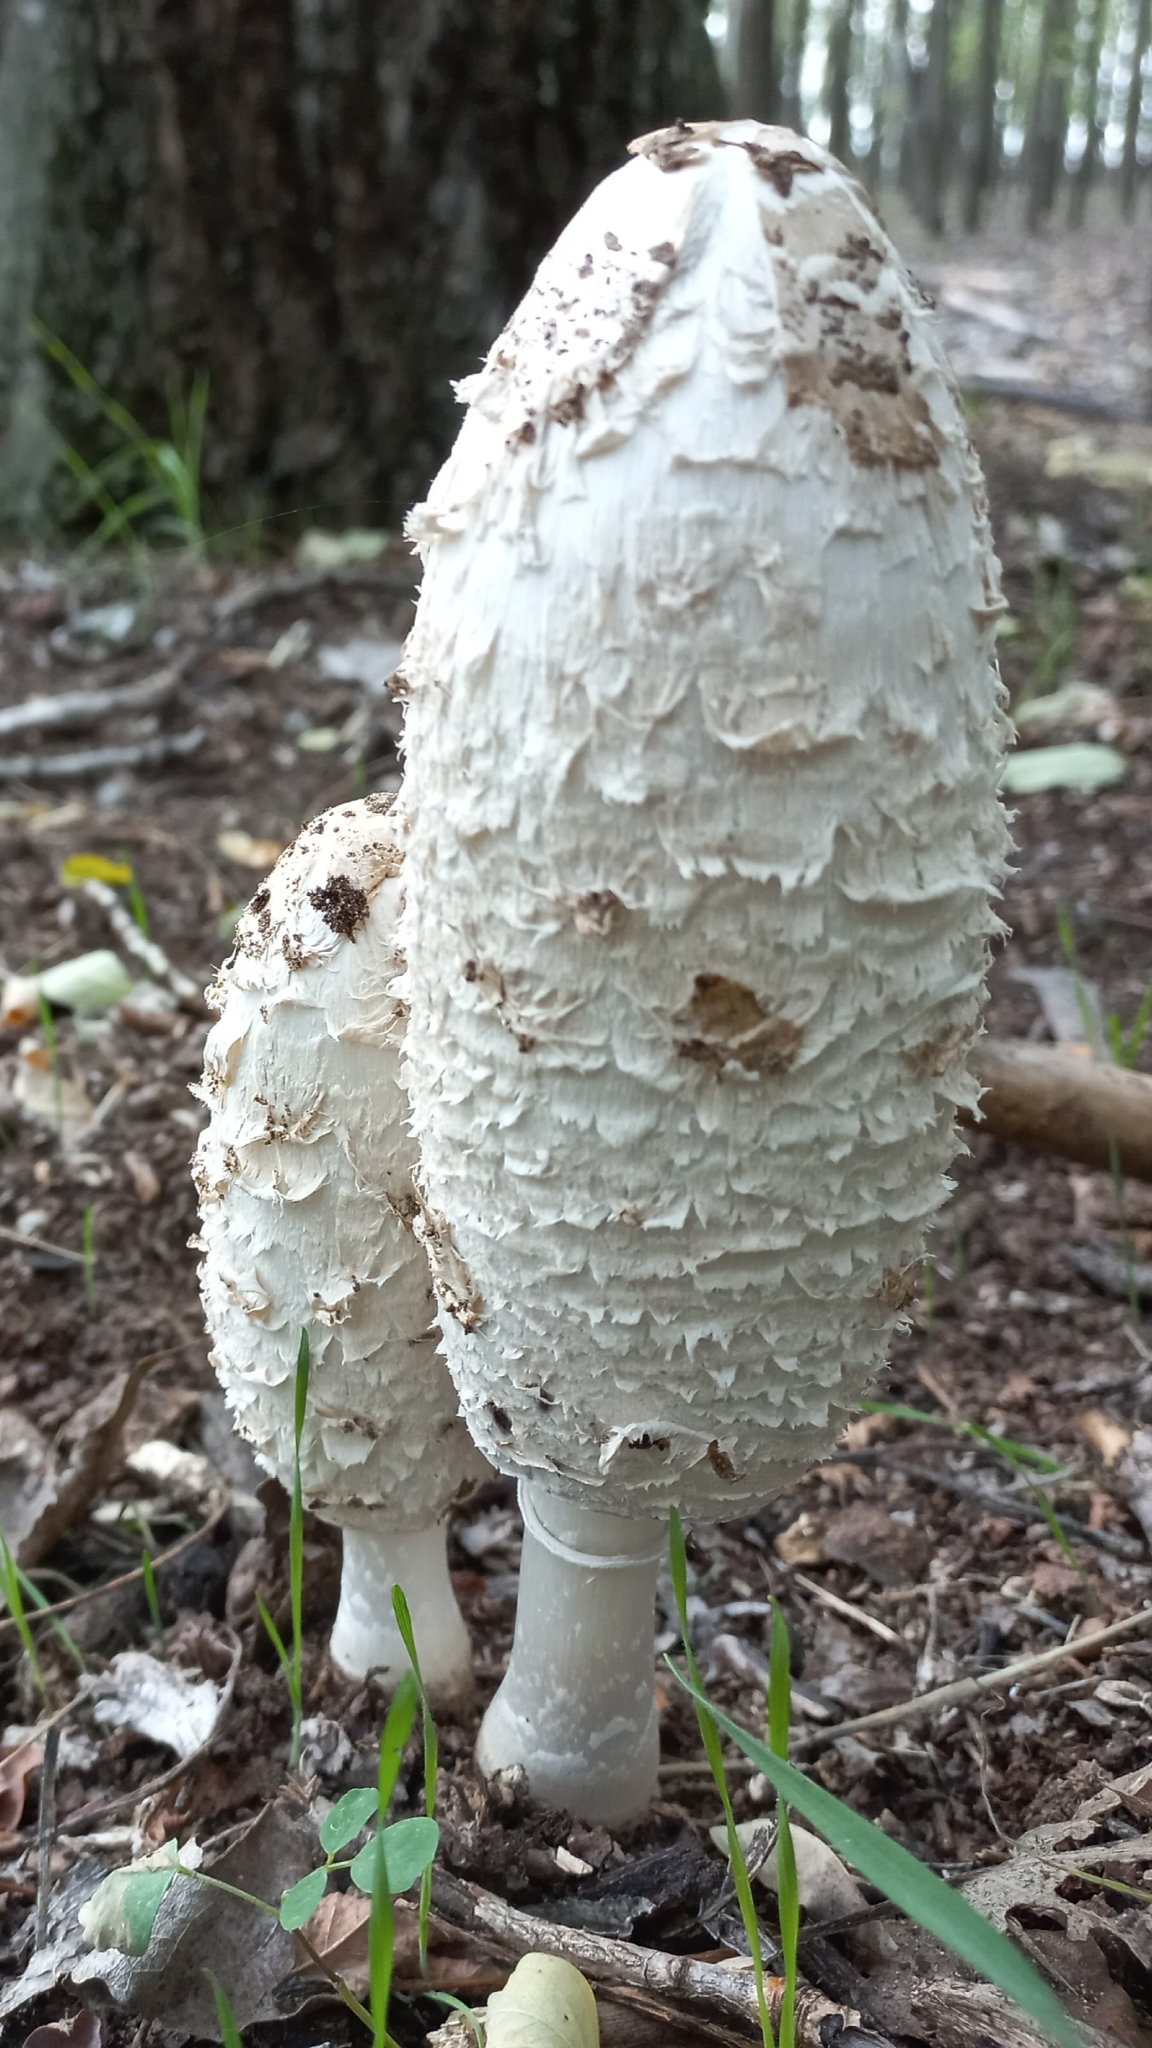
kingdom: Fungi
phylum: Basidiomycota
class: Agaricomycetes
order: Agaricales
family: Agaricaceae
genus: Coprinus
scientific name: Coprinus comatus
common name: Lawyer's wig
